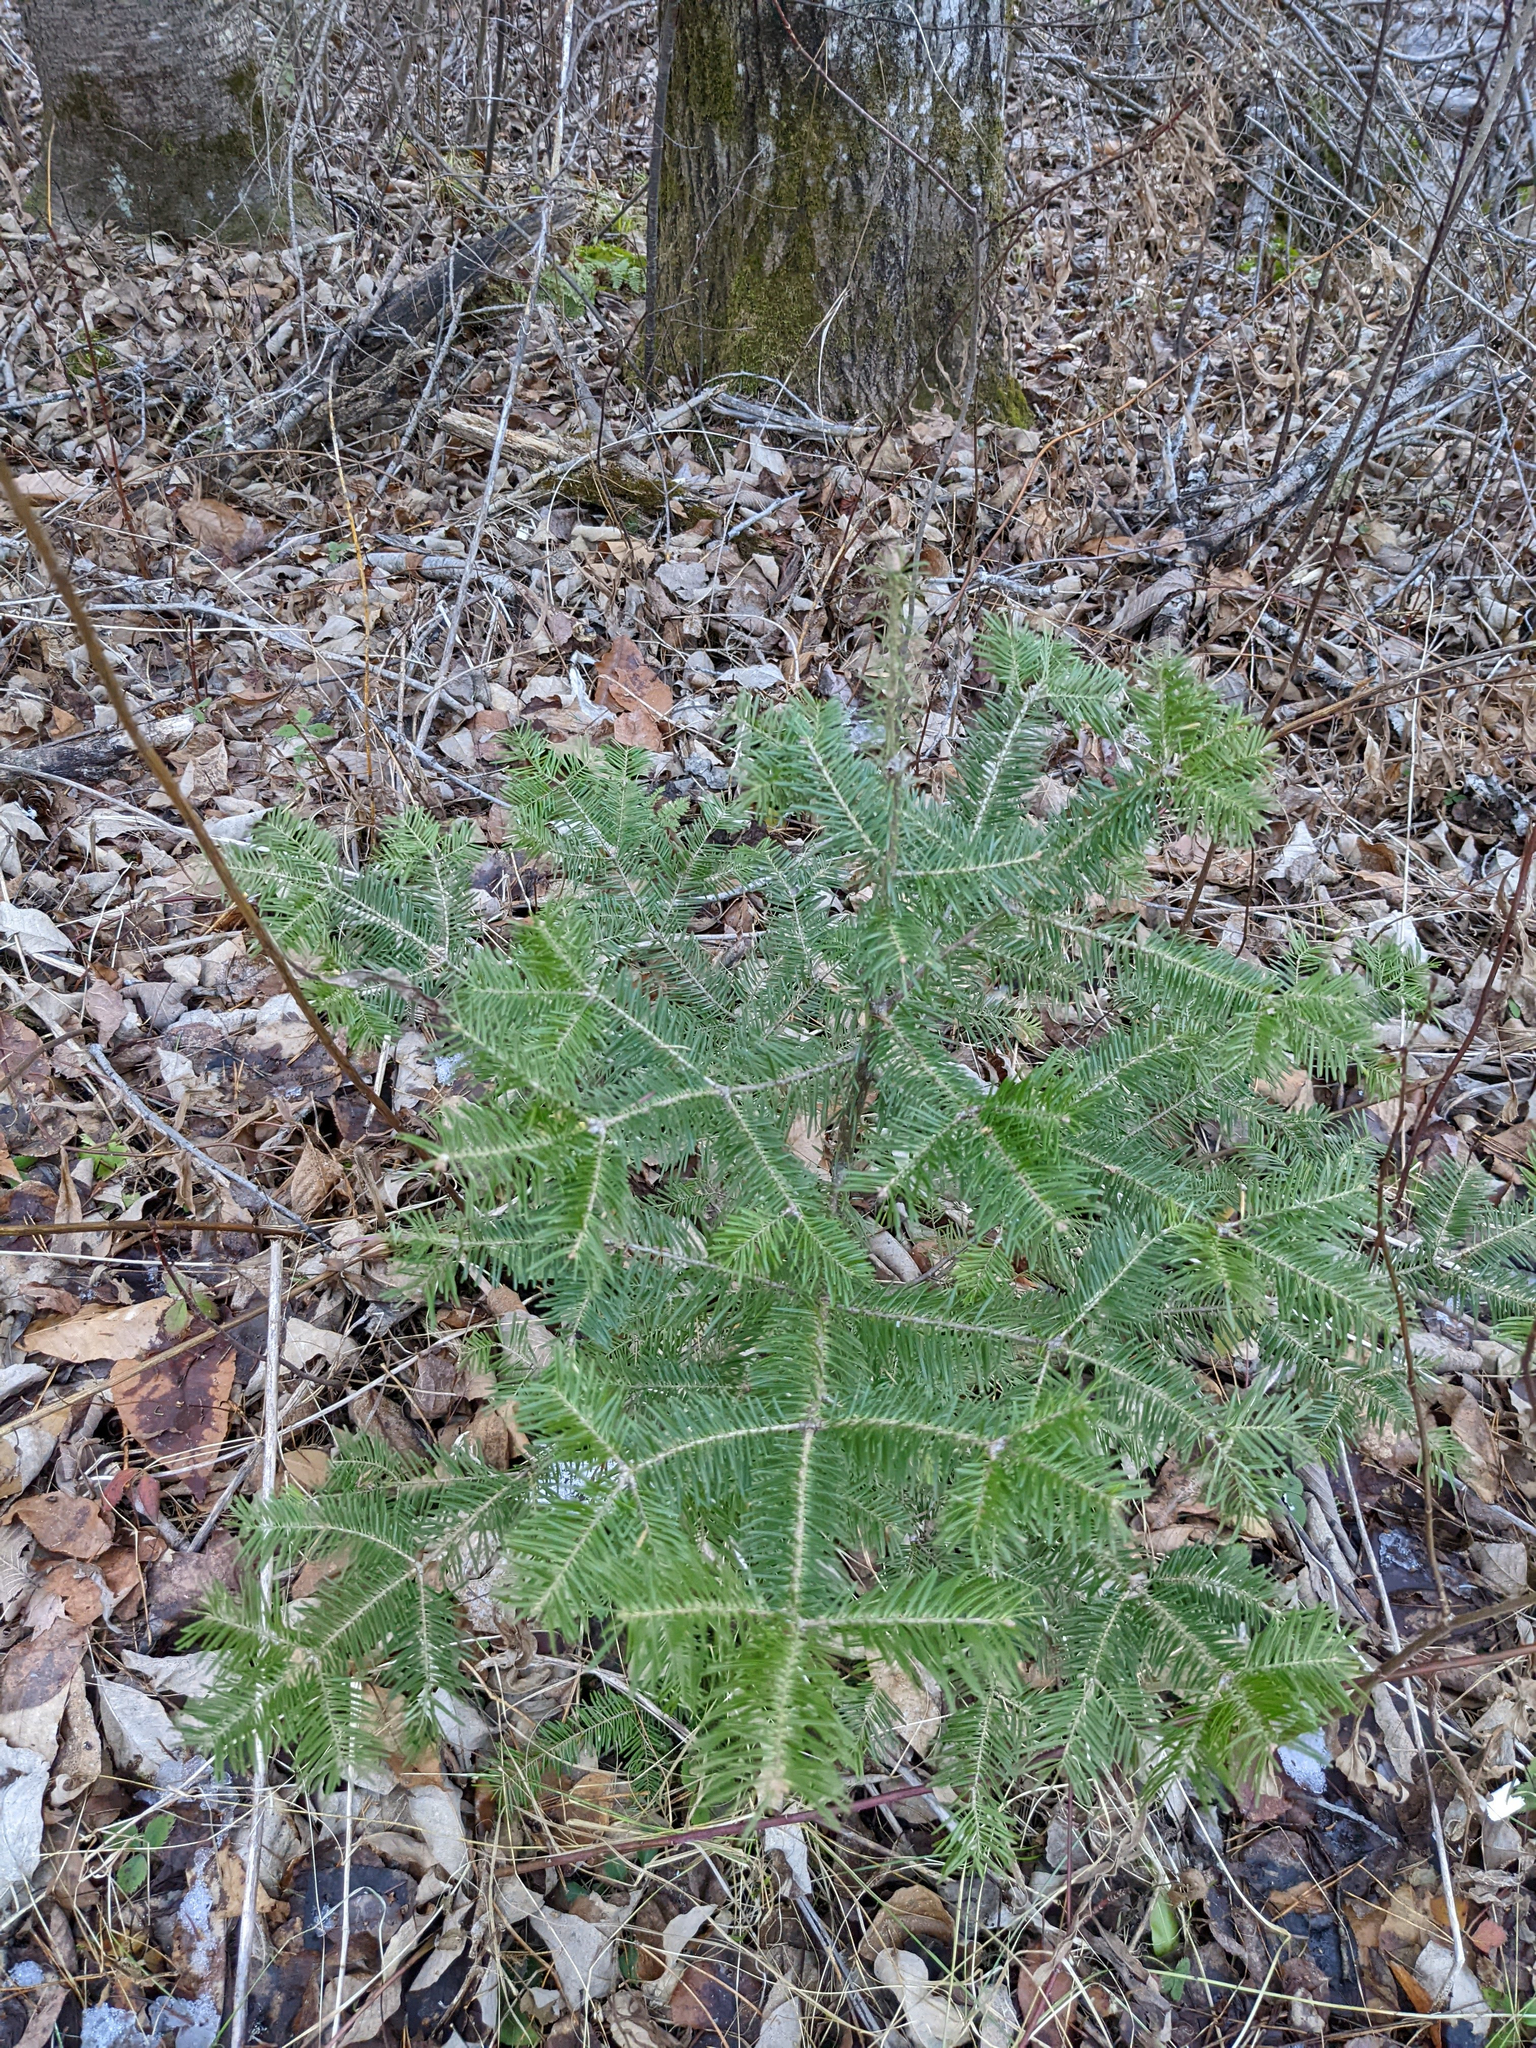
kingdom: Plantae
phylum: Tracheophyta
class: Pinopsida
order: Pinales
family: Pinaceae
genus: Abies
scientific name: Abies balsamea
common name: Balsam fir
